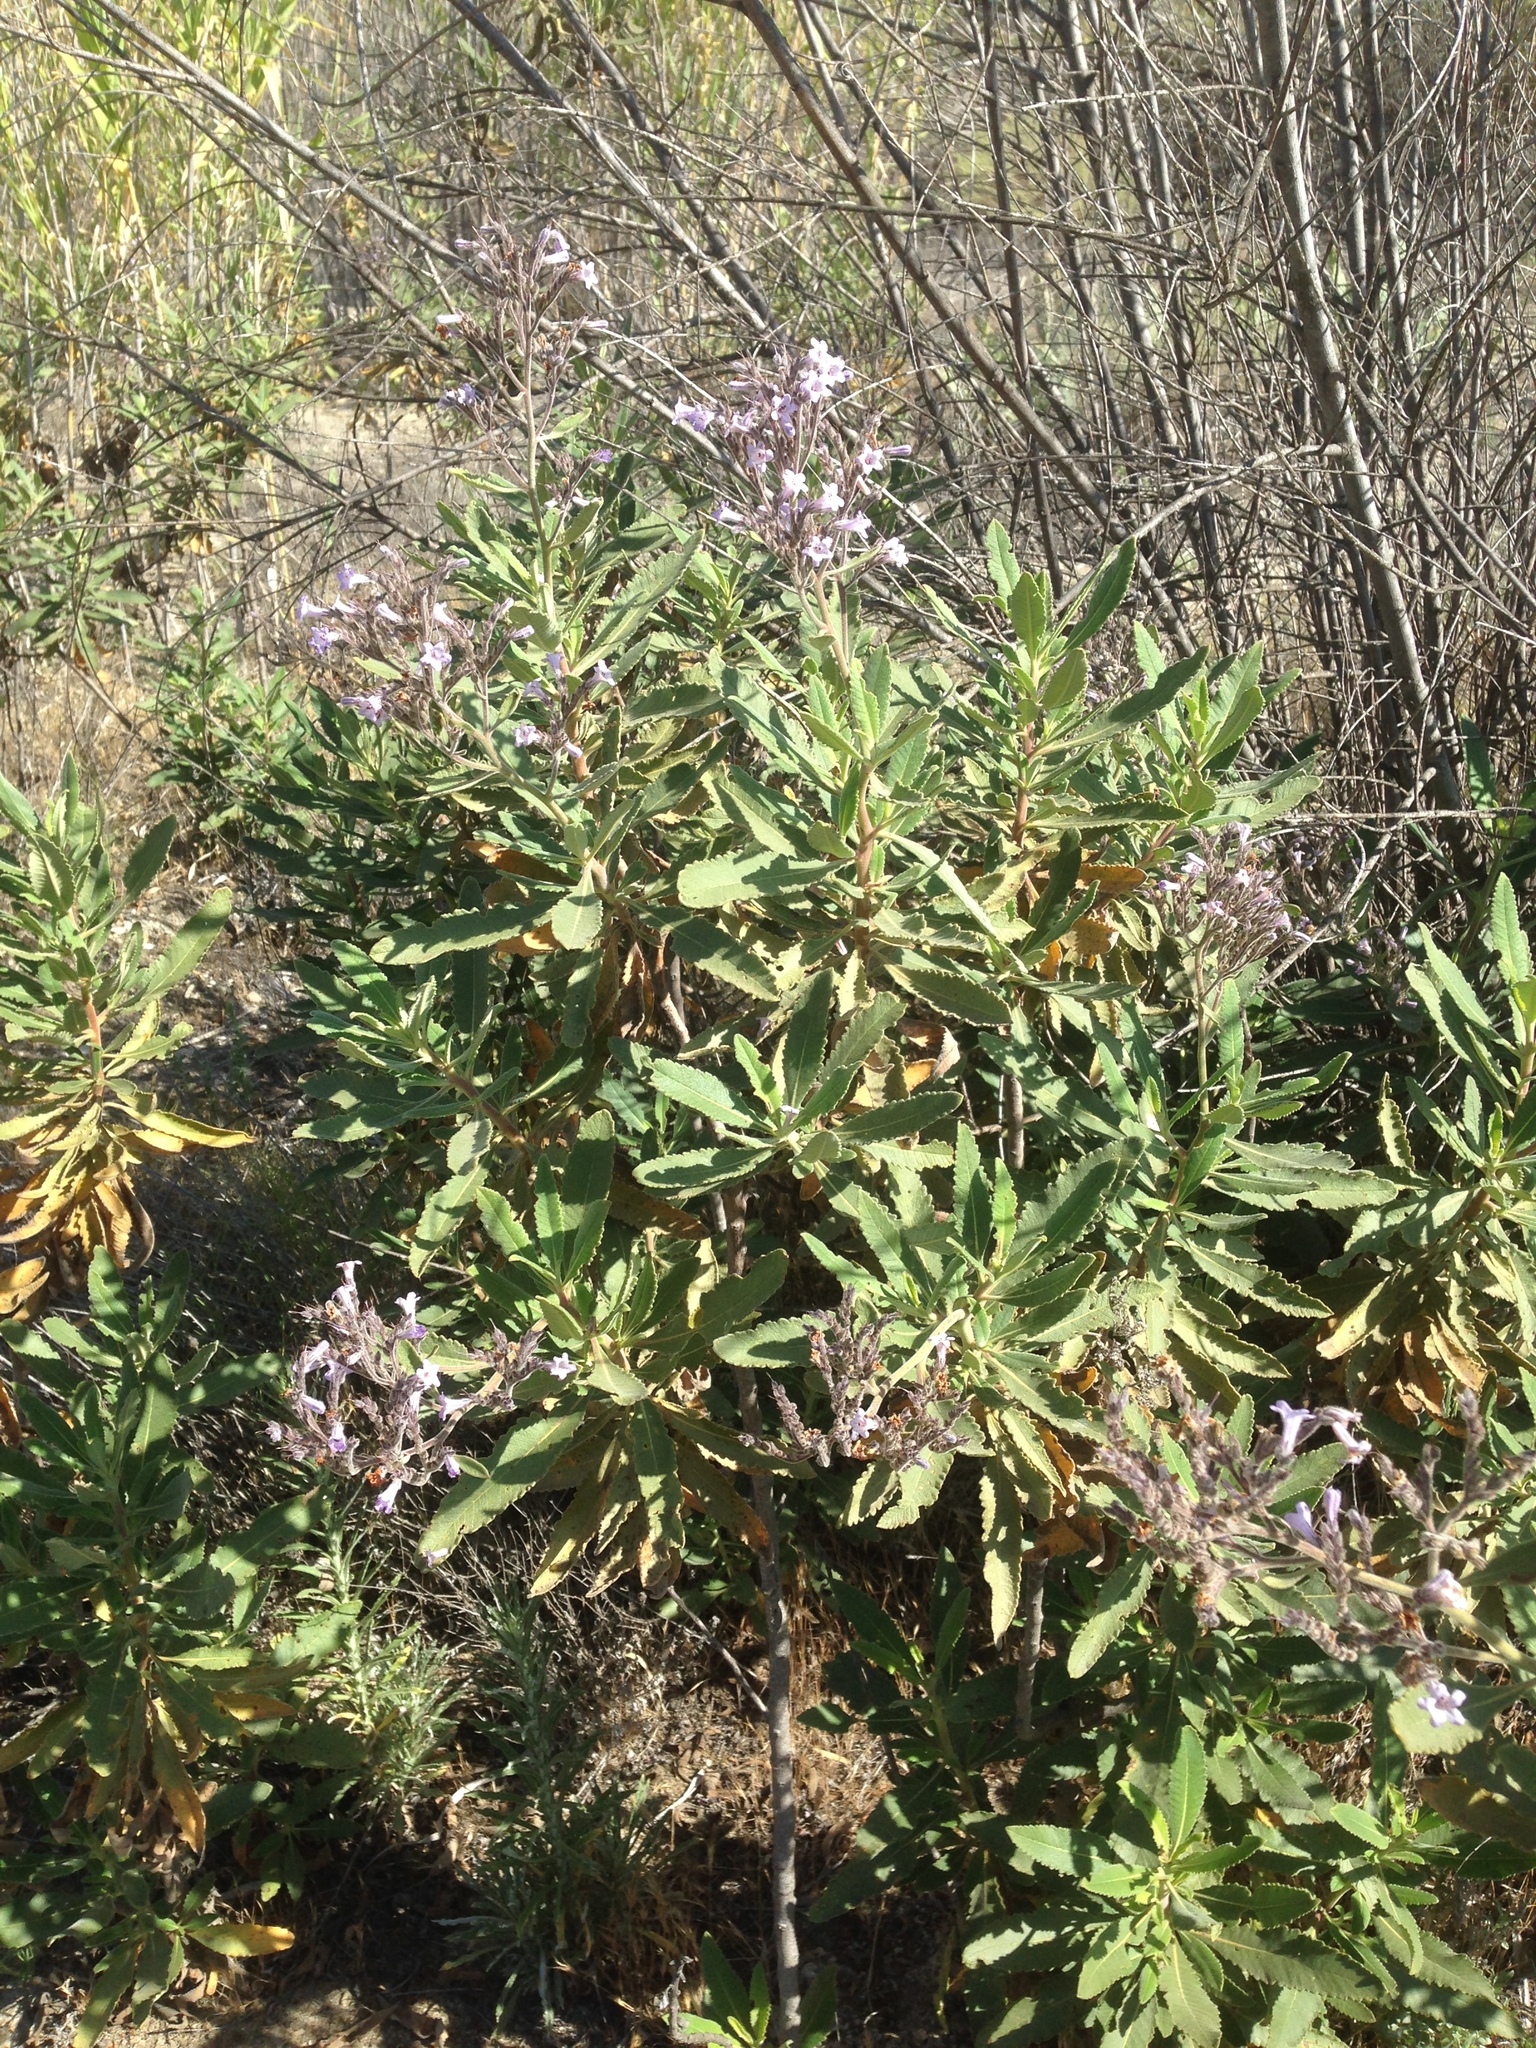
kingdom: Plantae
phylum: Tracheophyta
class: Magnoliopsida
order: Boraginales
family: Namaceae
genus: Eriodictyon
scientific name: Eriodictyon crassifolium
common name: Thick-leaf yerba-santa
